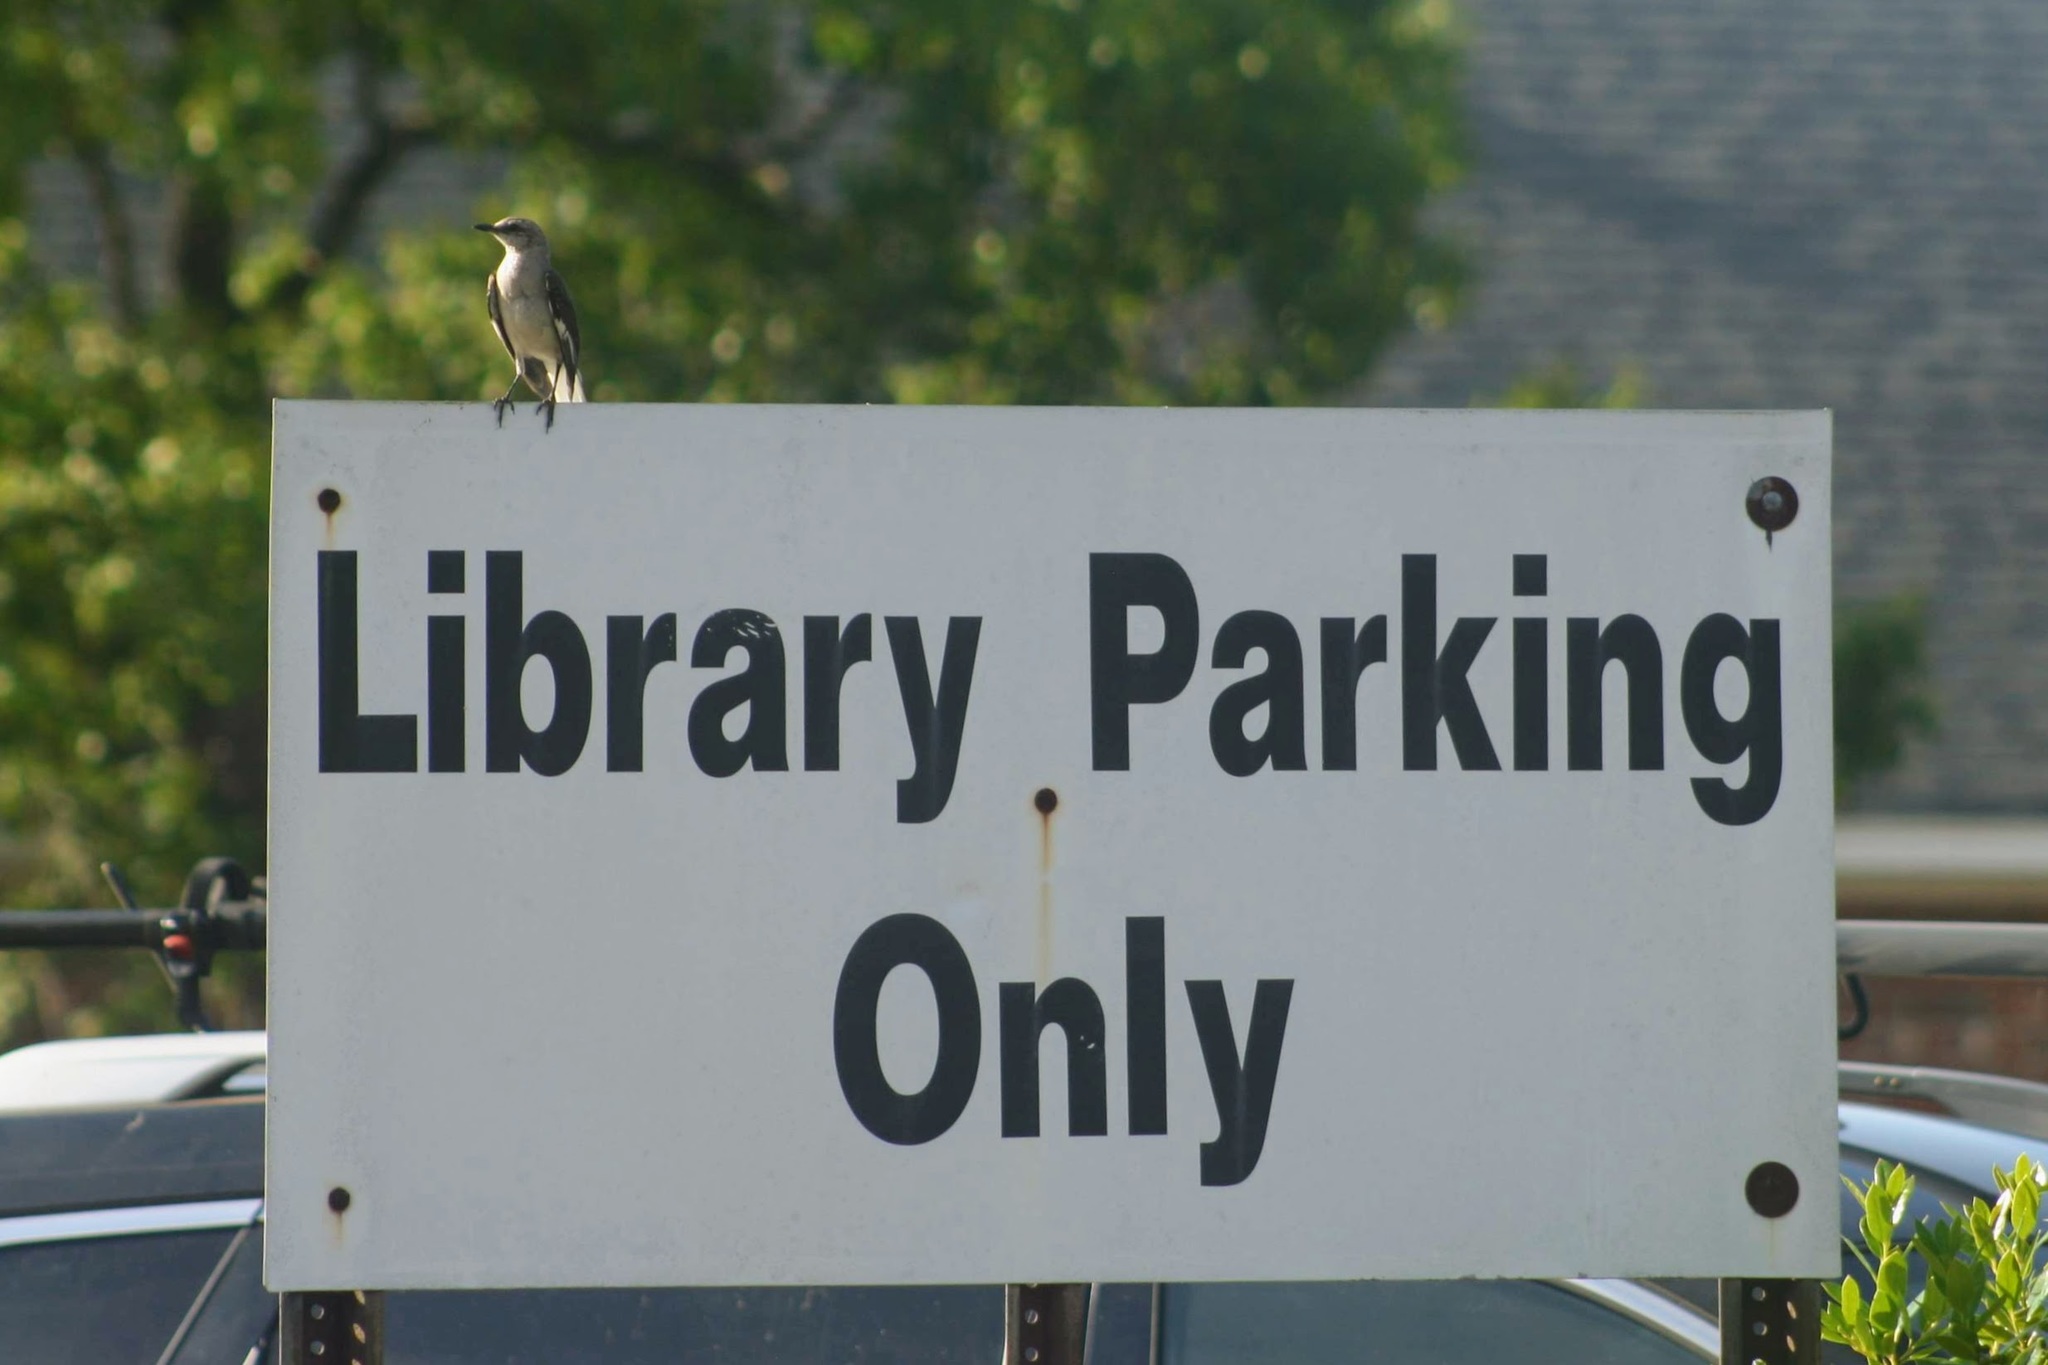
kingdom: Animalia
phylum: Chordata
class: Aves
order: Passeriformes
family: Mimidae
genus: Mimus
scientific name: Mimus polyglottos
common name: Northern mockingbird
